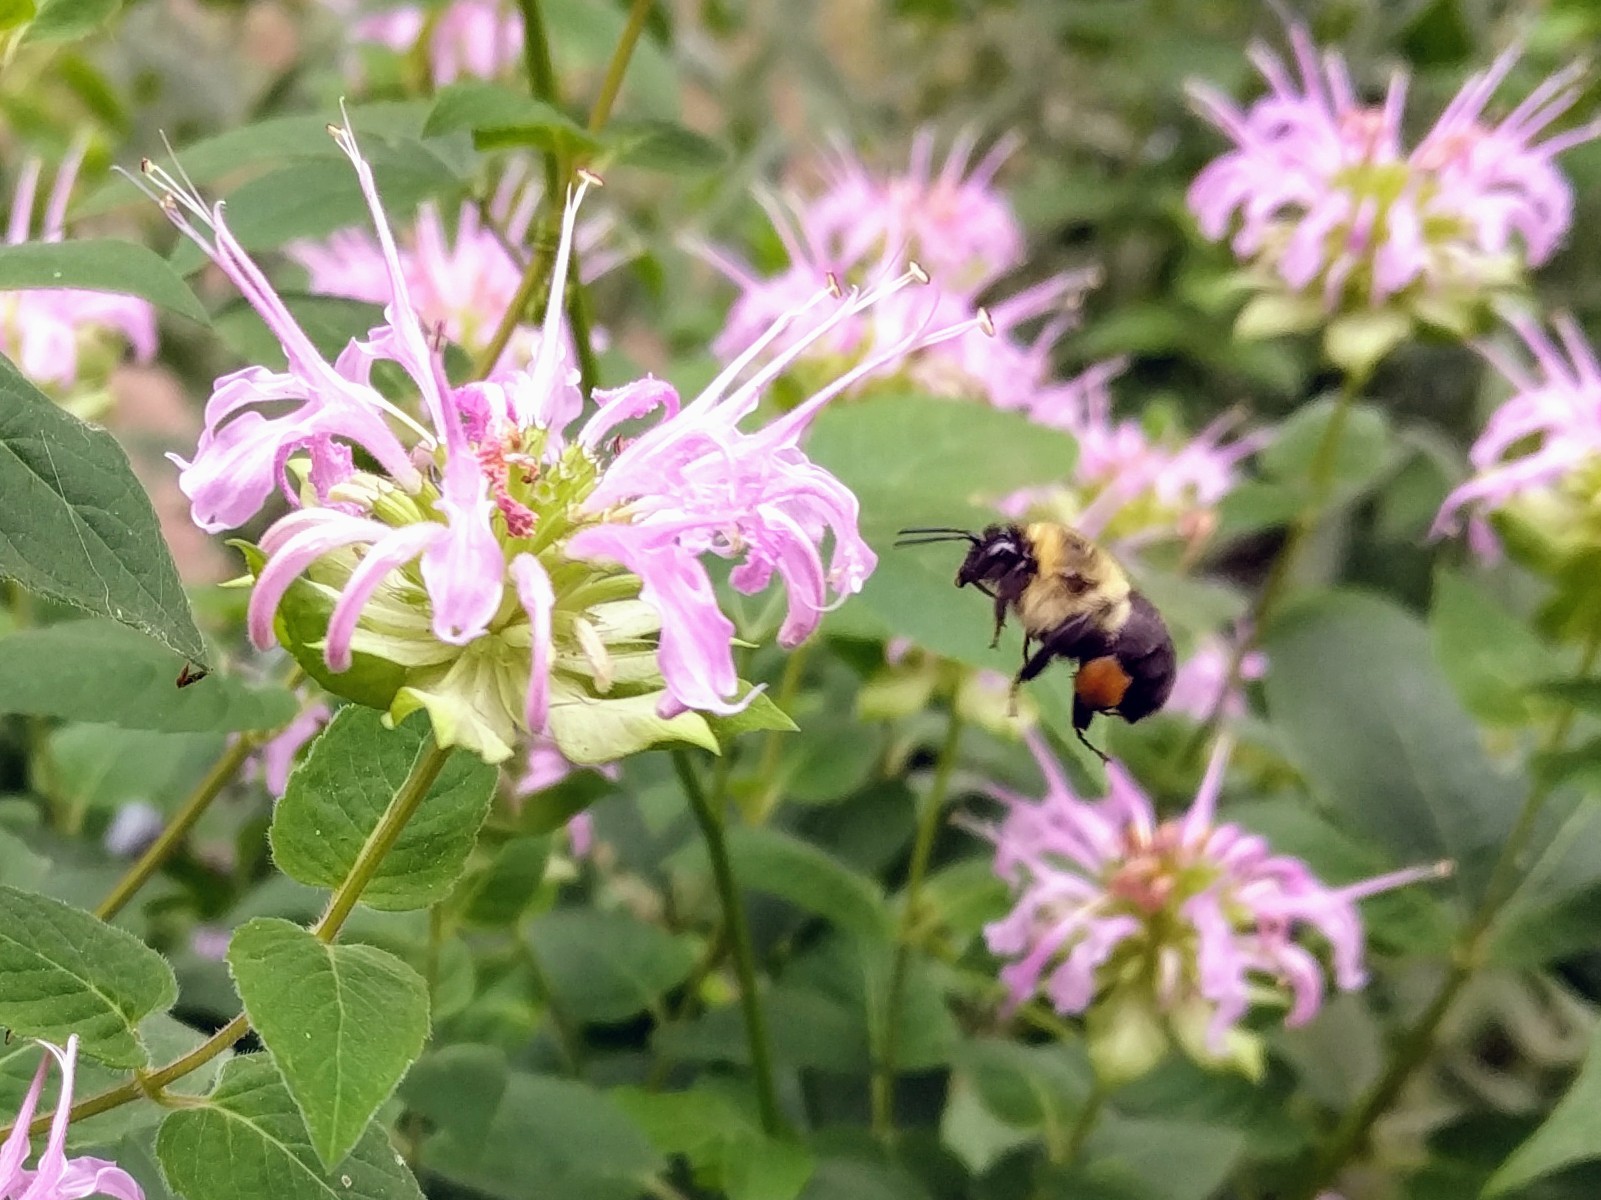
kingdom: Animalia
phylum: Arthropoda
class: Insecta
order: Hymenoptera
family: Apidae
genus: Bombus
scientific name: Bombus impatiens
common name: Common eastern bumble bee
